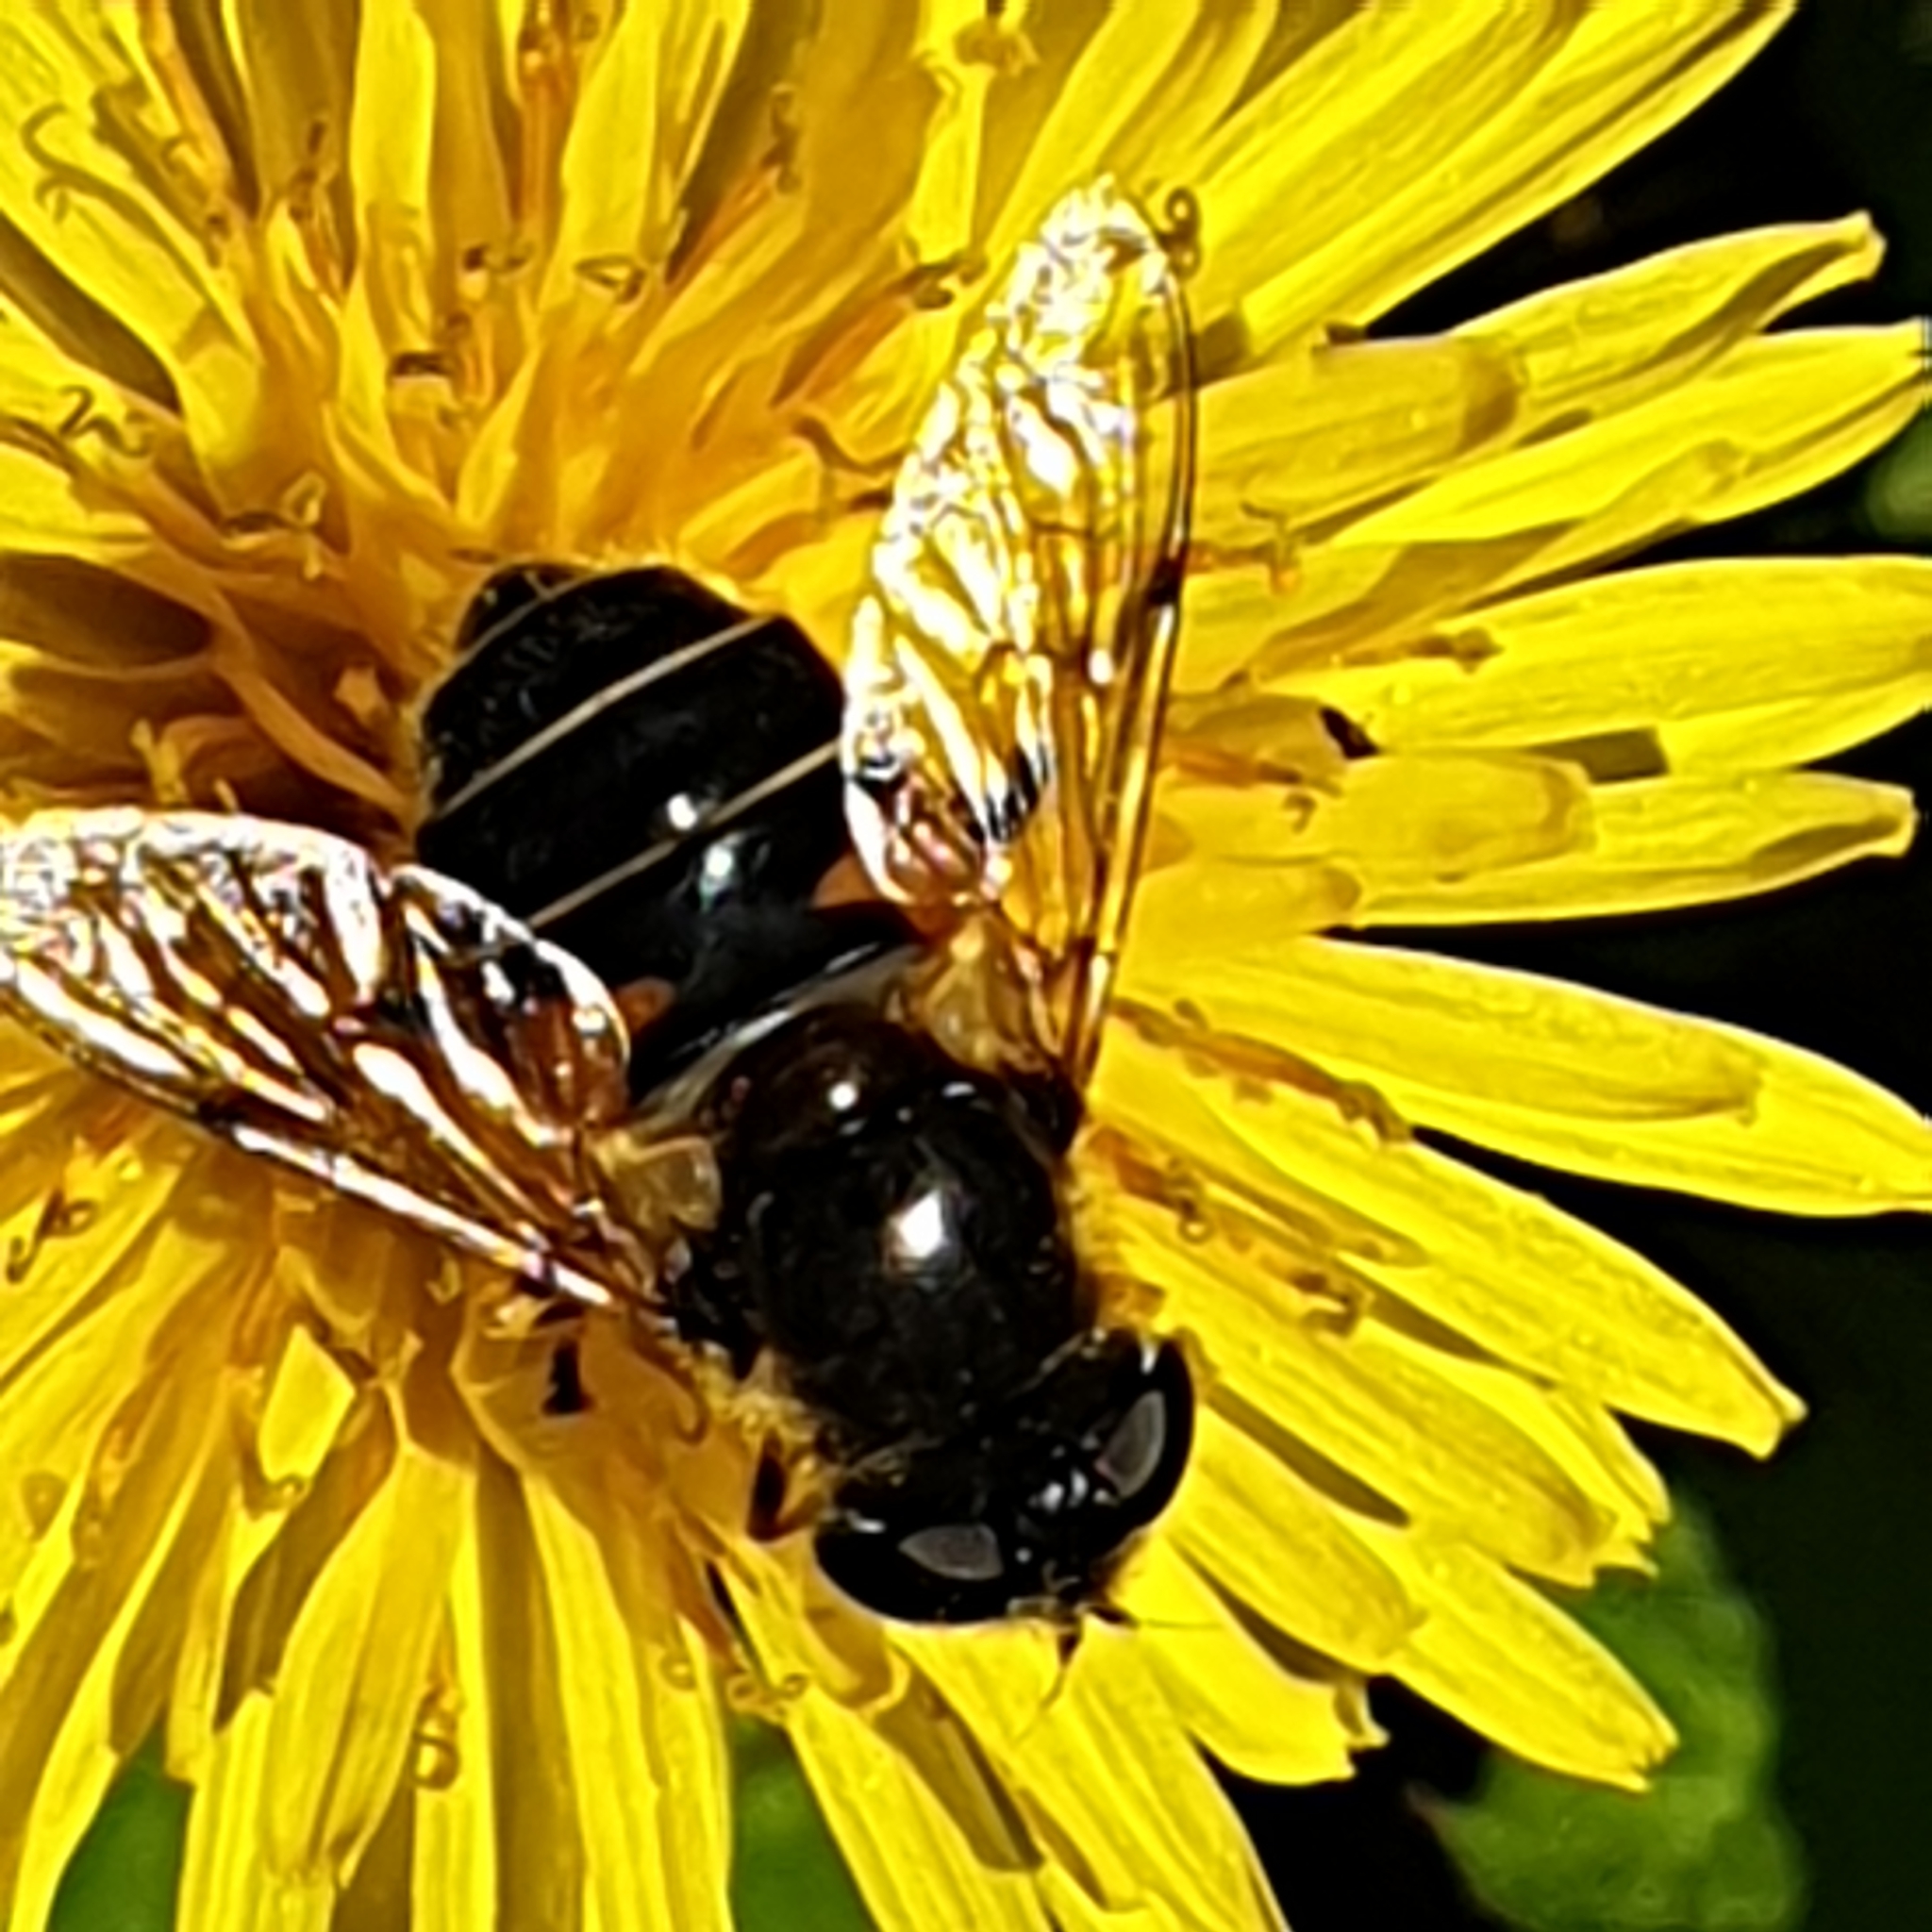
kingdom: Animalia
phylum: Arthropoda
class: Insecta
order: Diptera
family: Syrphidae
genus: Eristalis
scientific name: Eristalis obscura
